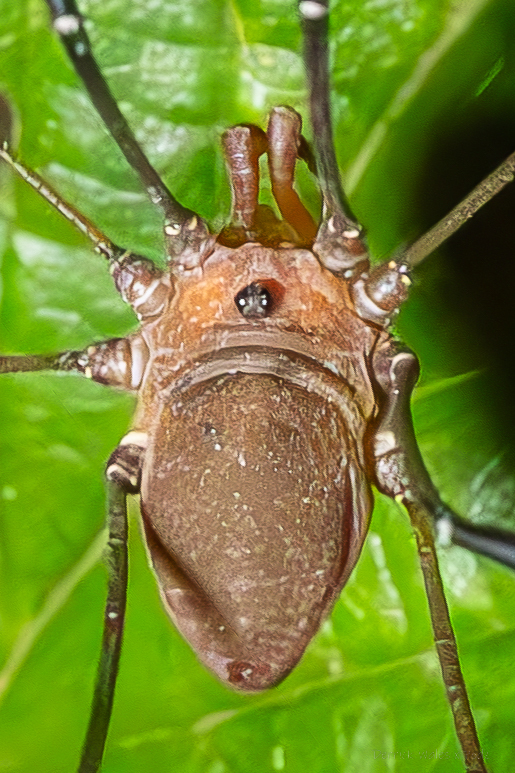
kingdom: Animalia
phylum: Arthropoda
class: Arachnida
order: Opiliones
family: Sclerosomatidae
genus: Leiobunum
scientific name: Leiobunum vittatum
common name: Eastern harvestman
